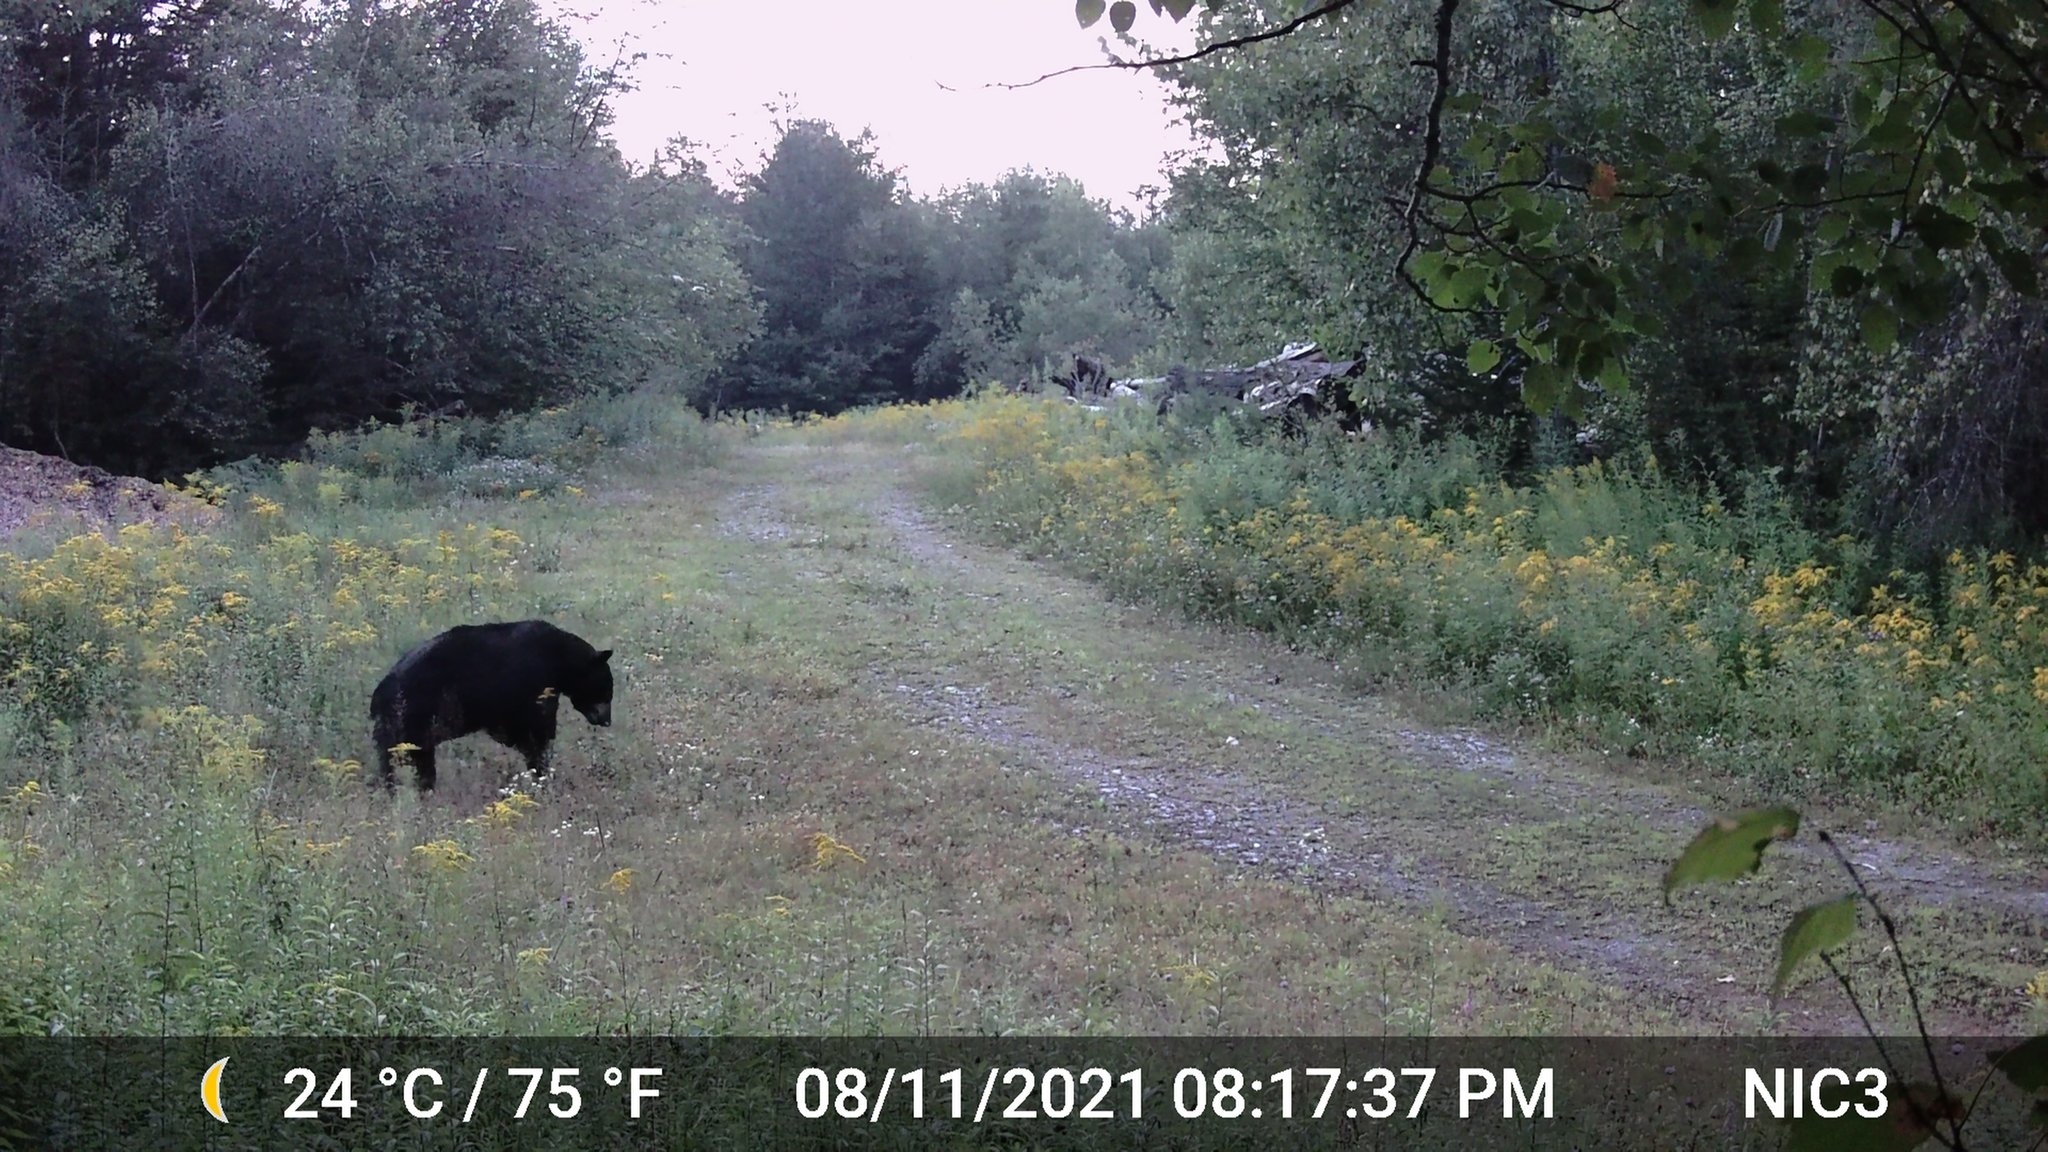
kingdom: Animalia
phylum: Chordata
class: Mammalia
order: Carnivora
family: Ursidae
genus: Ursus
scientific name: Ursus americanus
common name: American black bear
